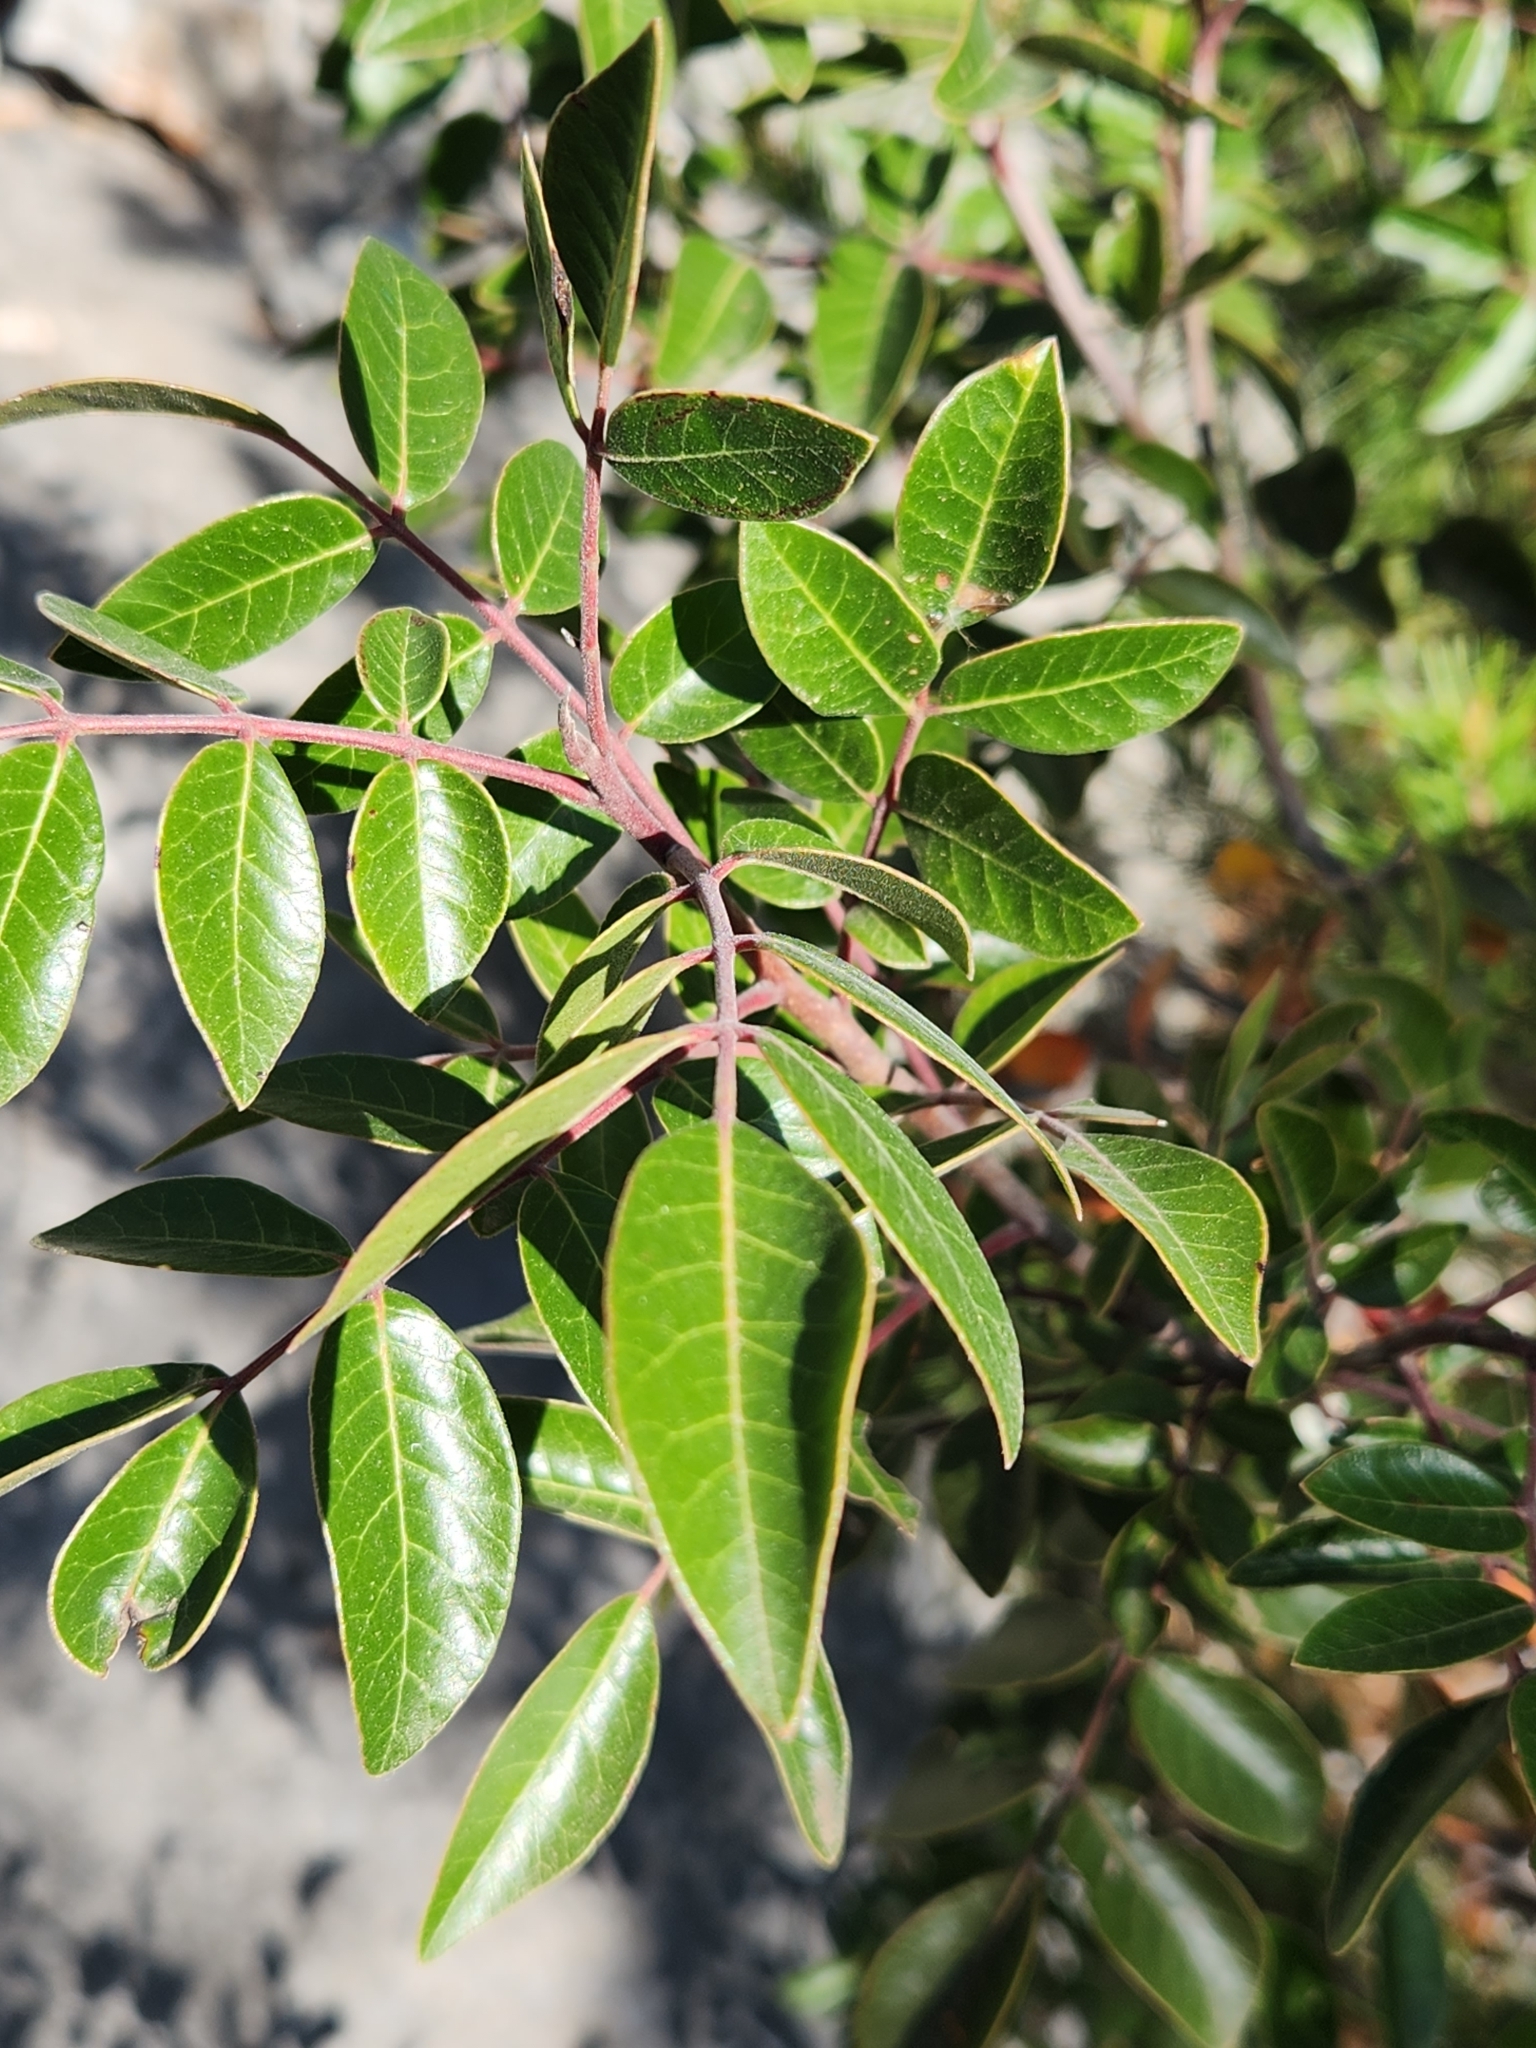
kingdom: Plantae
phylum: Tracheophyta
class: Magnoliopsida
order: Sapindales
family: Anacardiaceae
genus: Rhus
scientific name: Rhus virens
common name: Evergreen sumac
